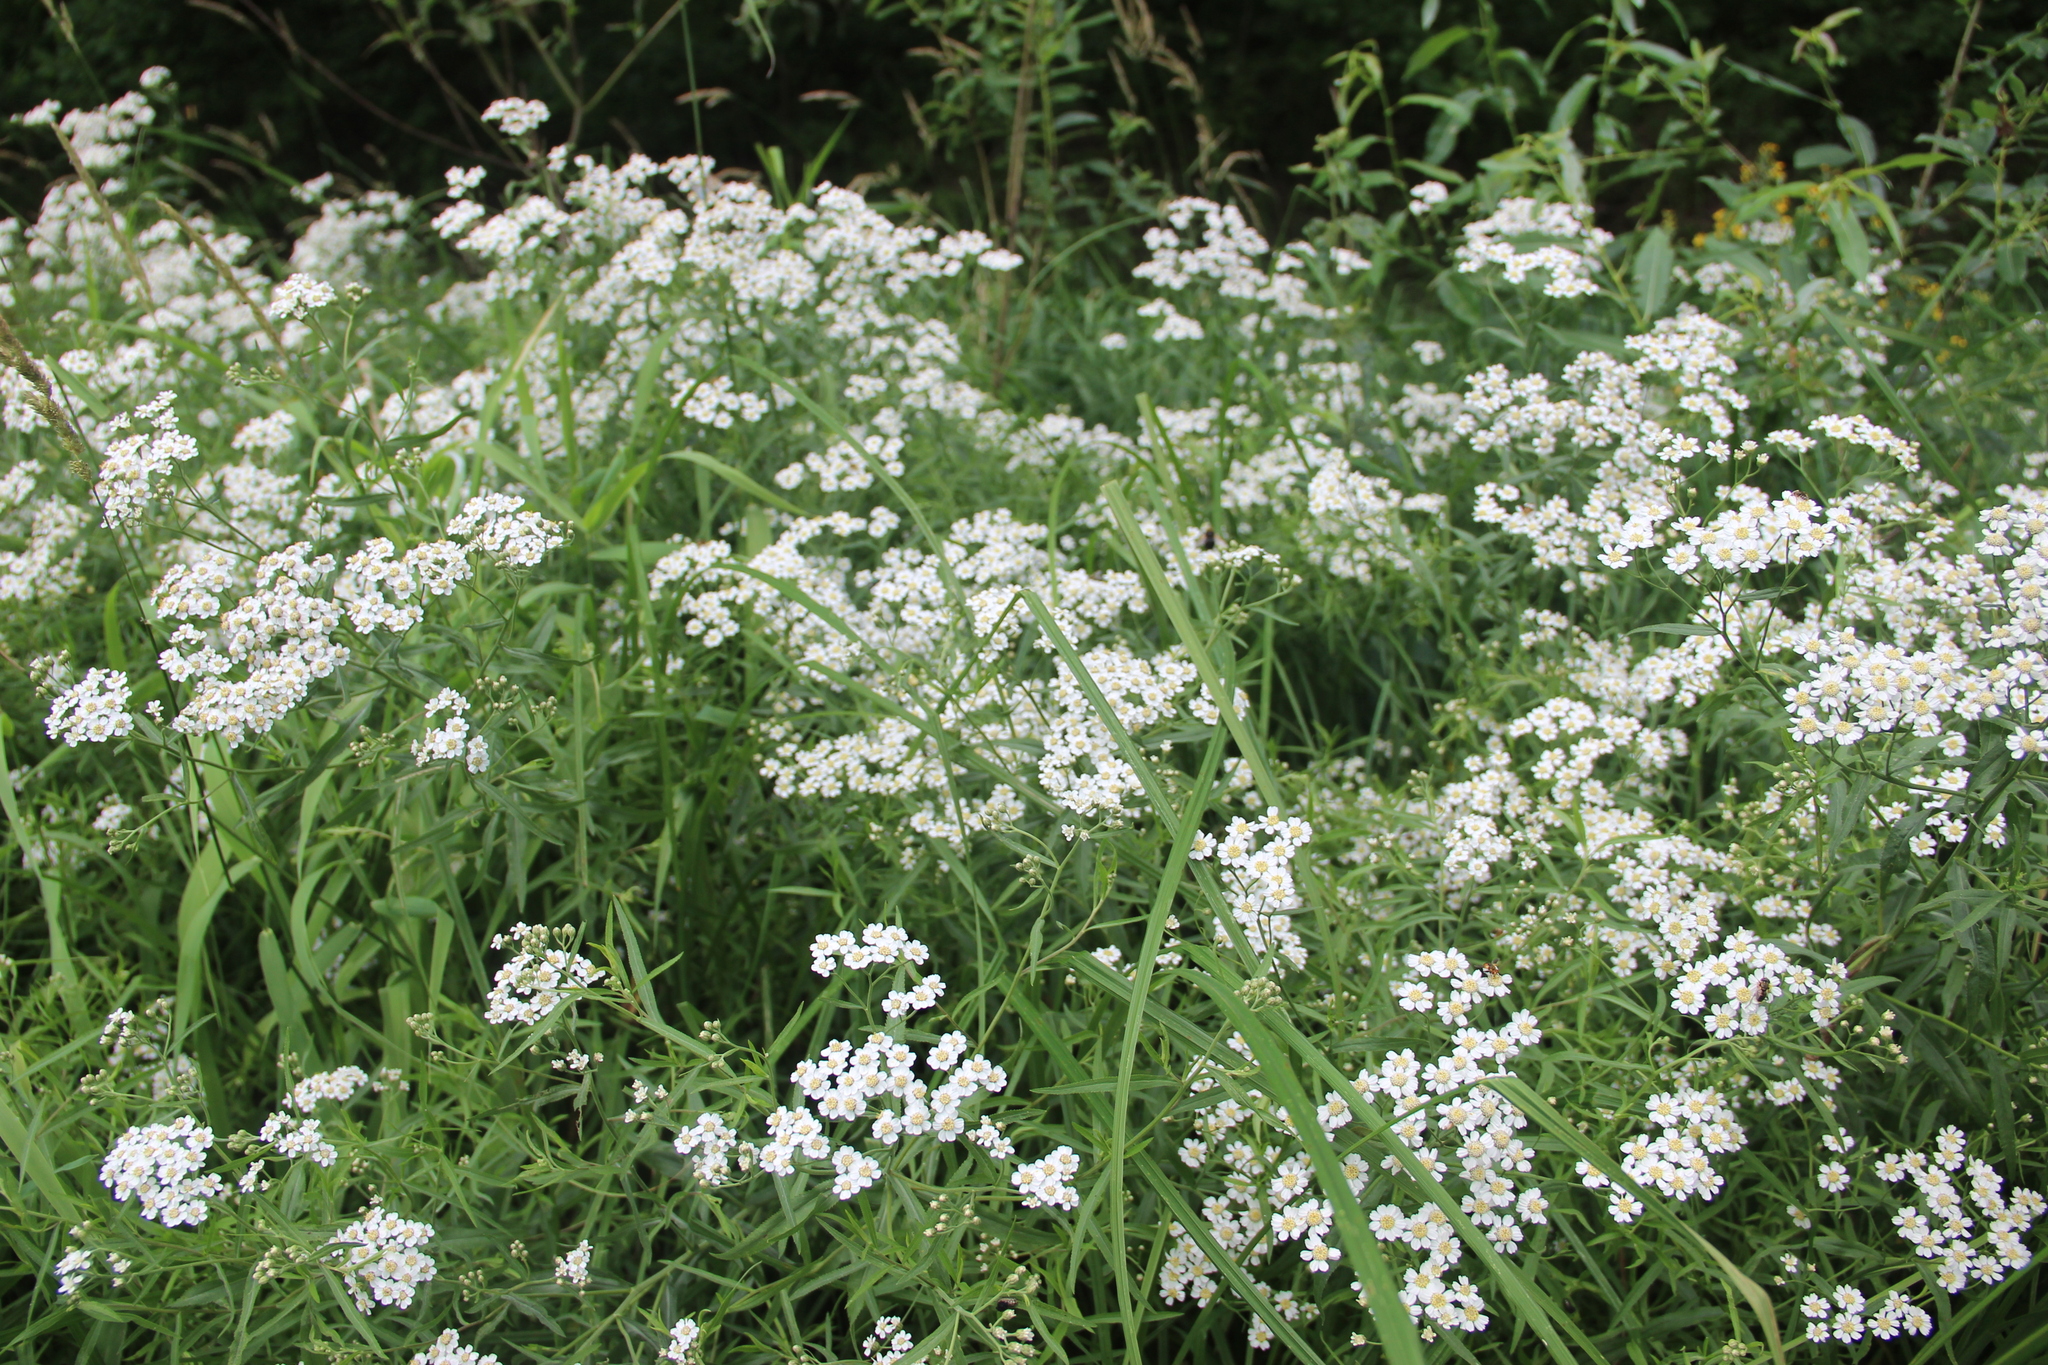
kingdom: Plantae
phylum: Tracheophyta
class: Magnoliopsida
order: Asterales
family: Asteraceae
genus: Achillea
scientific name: Achillea salicifolia
